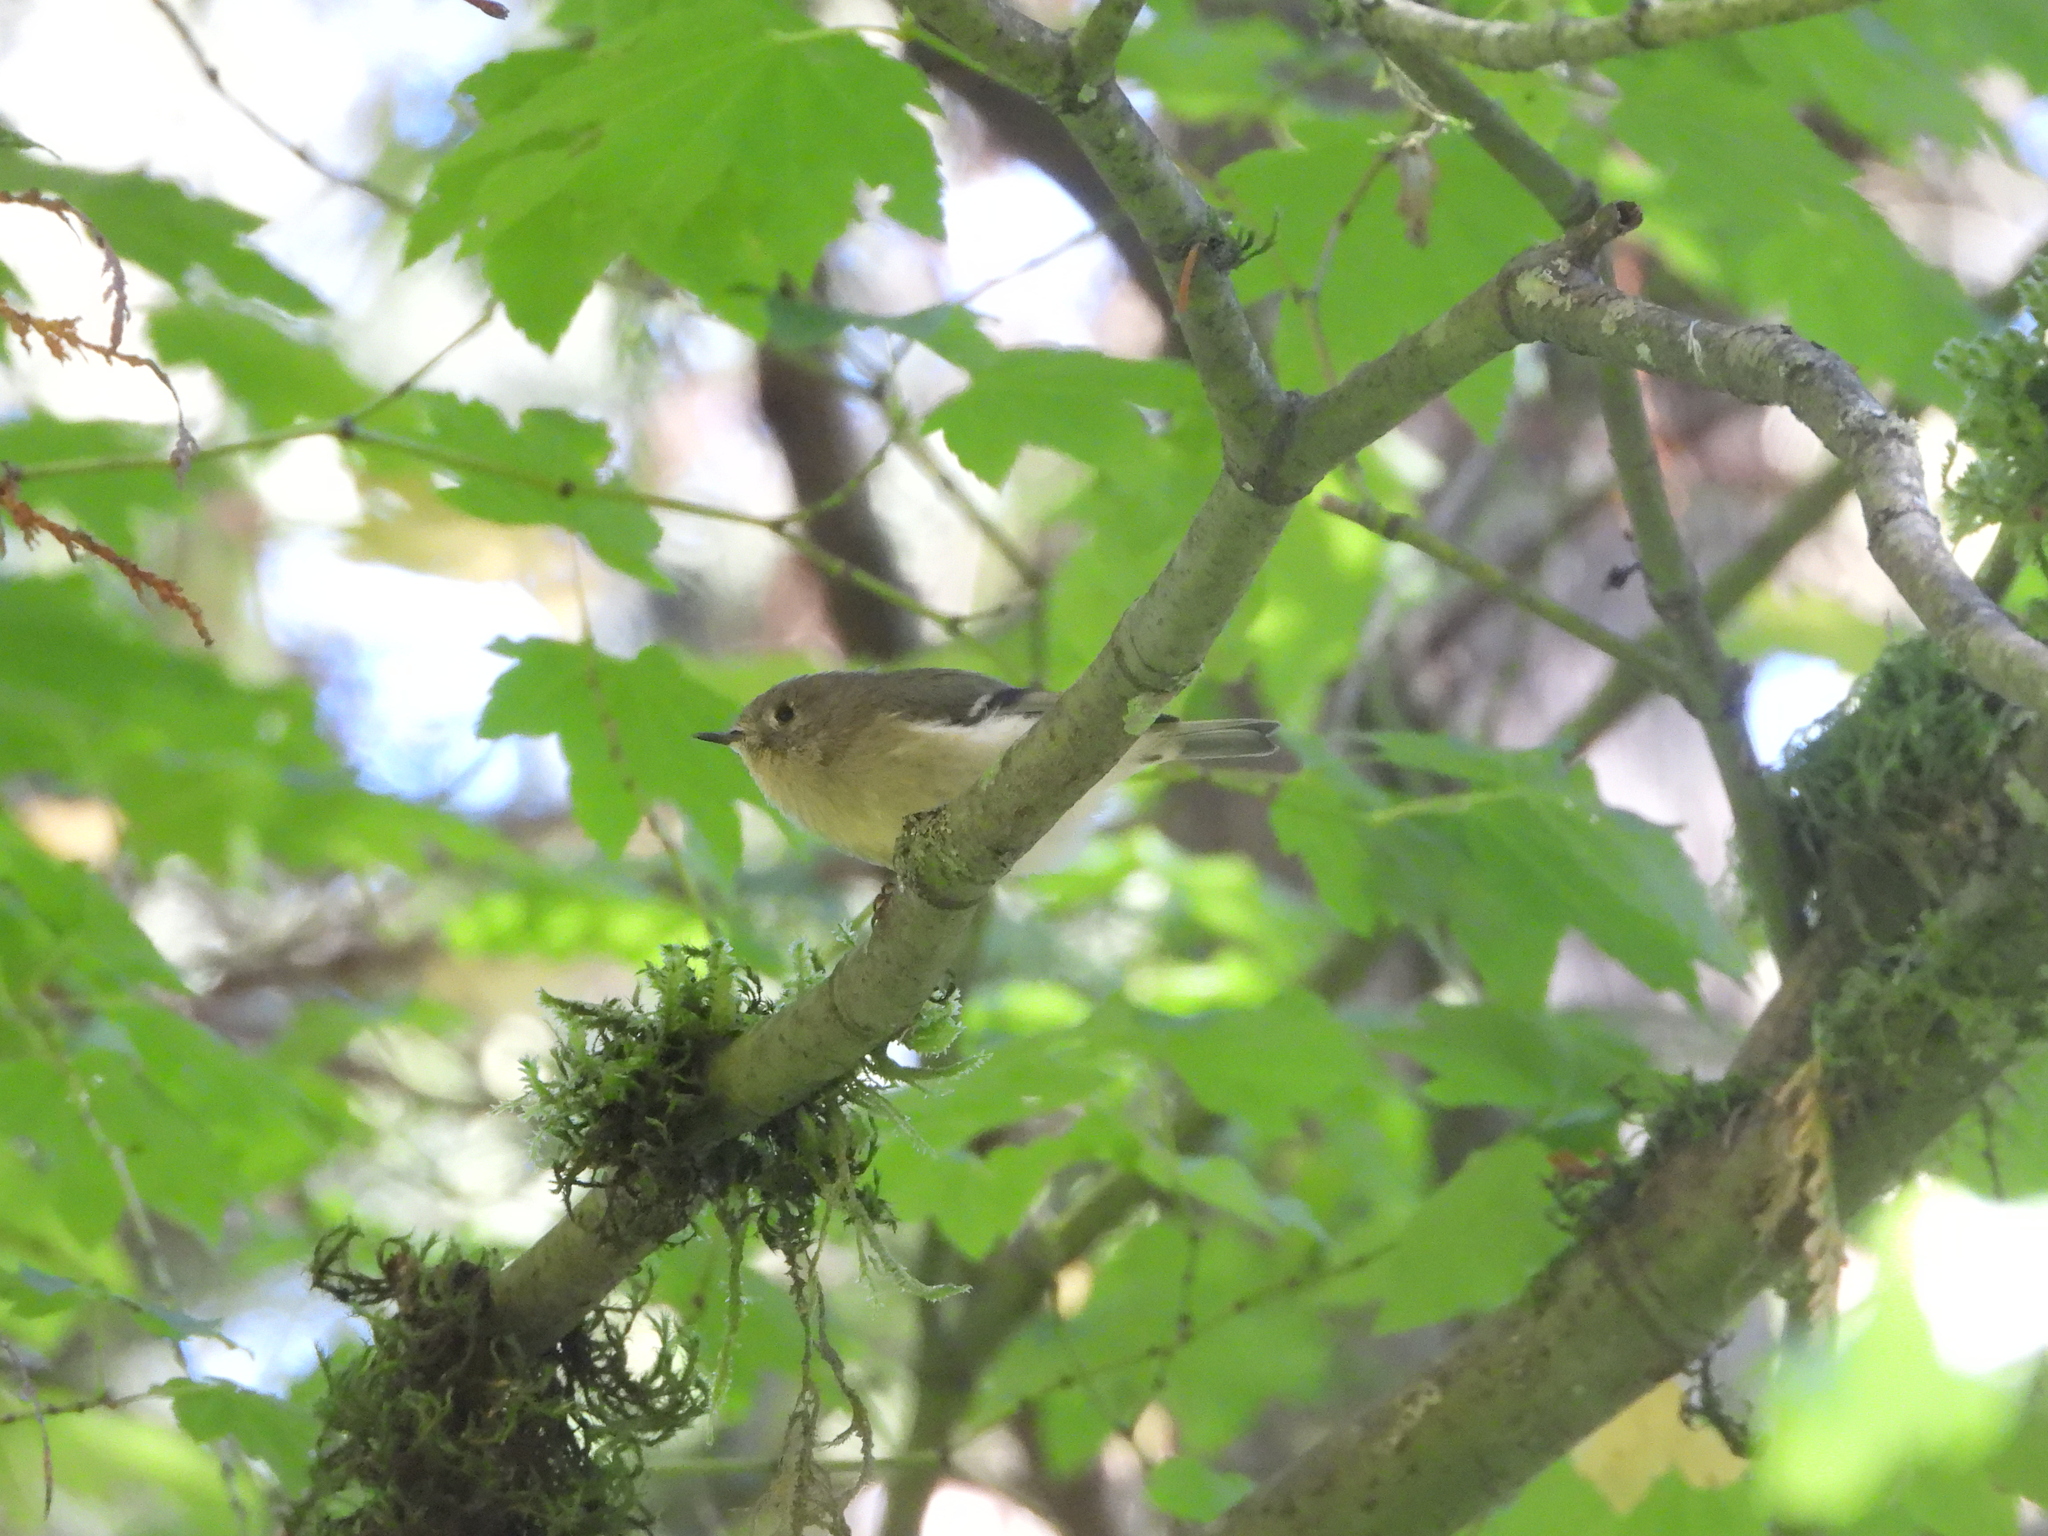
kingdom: Animalia
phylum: Chordata
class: Aves
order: Passeriformes
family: Regulidae
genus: Regulus
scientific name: Regulus calendula
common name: Ruby-crowned kinglet
